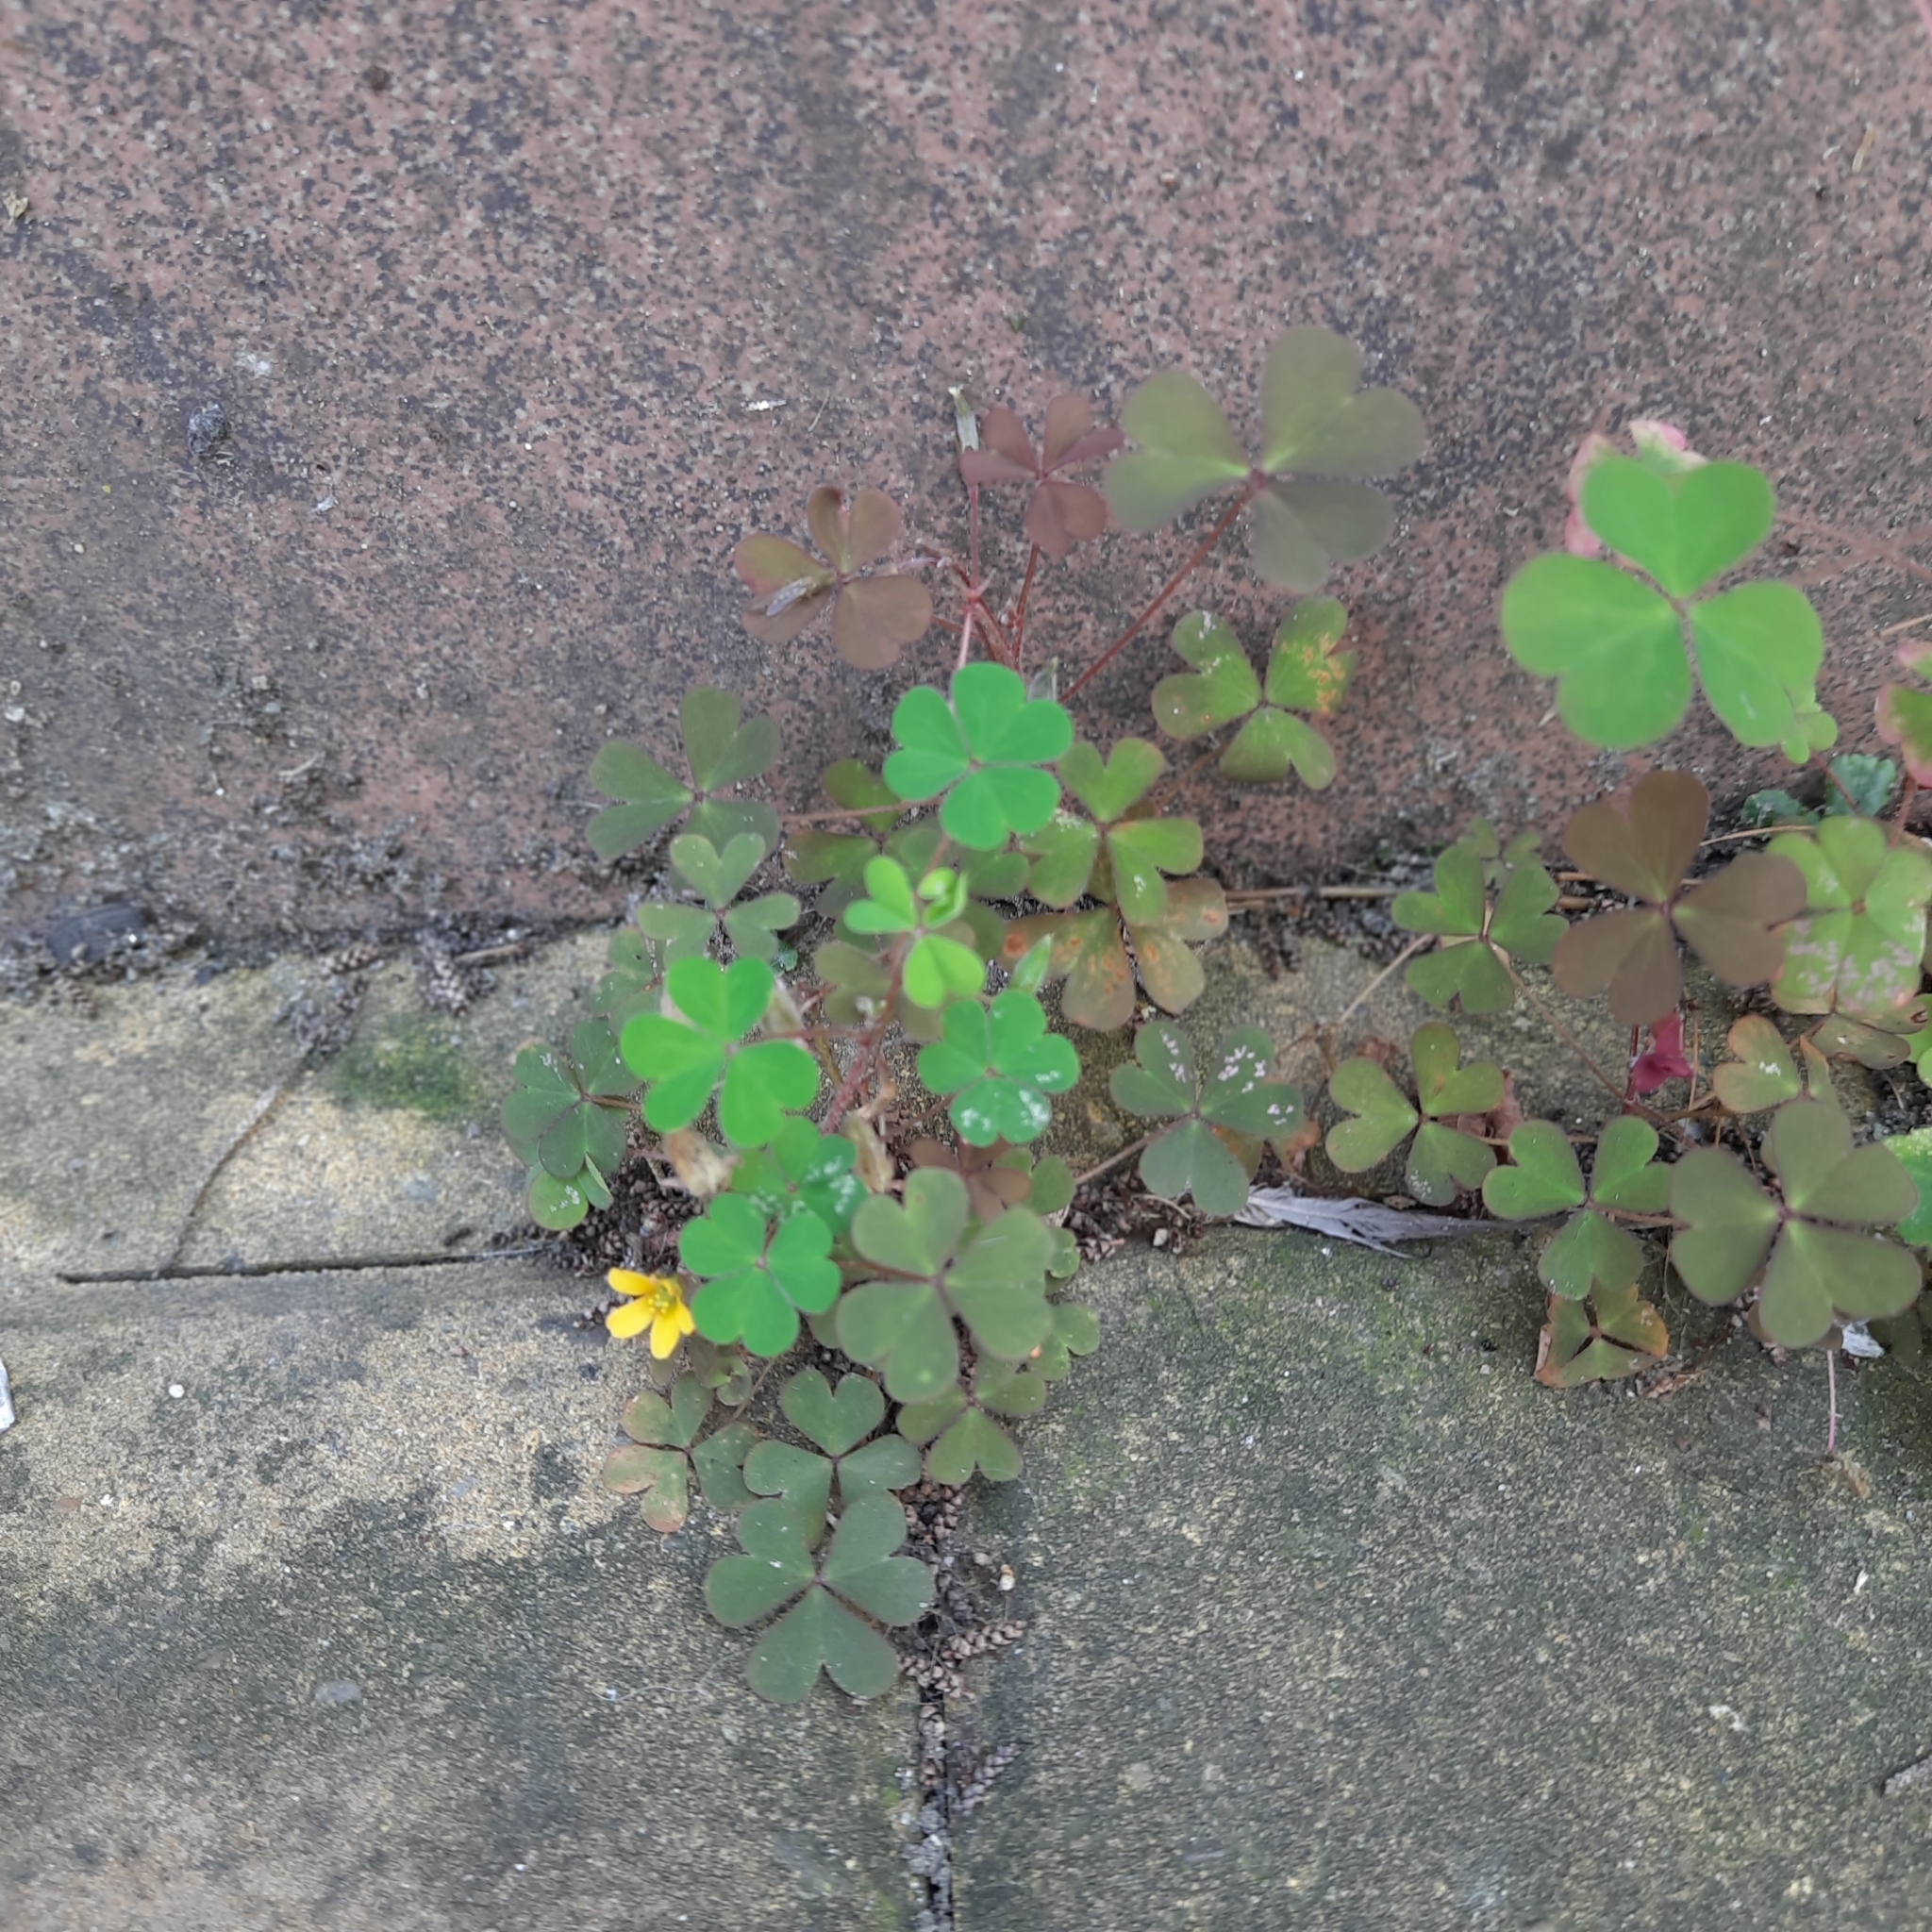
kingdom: Plantae
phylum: Tracheophyta
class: Magnoliopsida
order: Oxalidales
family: Oxalidaceae
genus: Oxalis
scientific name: Oxalis stricta
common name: Upright yellow-sorrel
